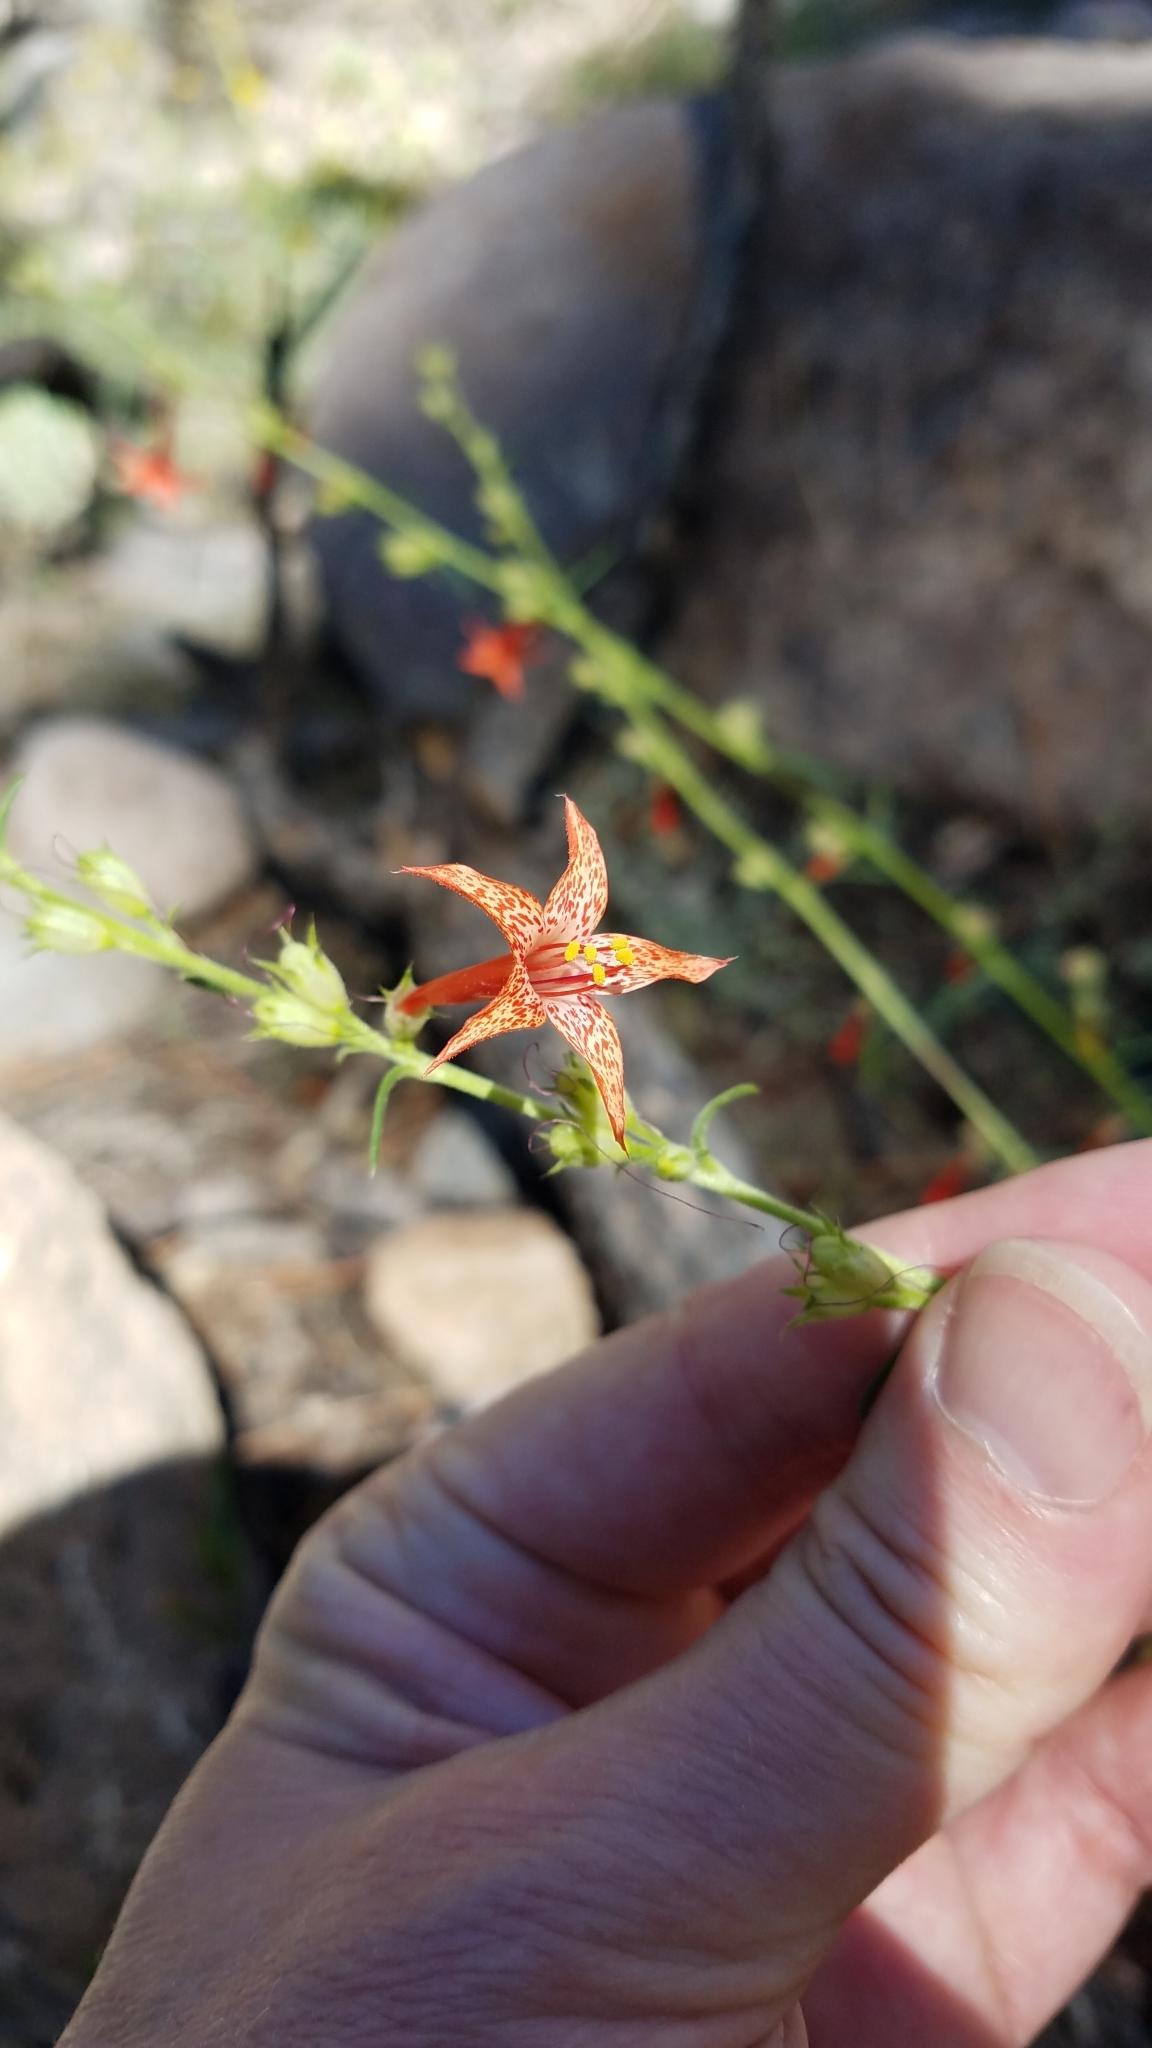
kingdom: Plantae
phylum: Tracheophyta
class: Magnoliopsida
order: Ericales
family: Polemoniaceae
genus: Ipomopsis
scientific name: Ipomopsis aggregata
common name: Scarlet gilia
